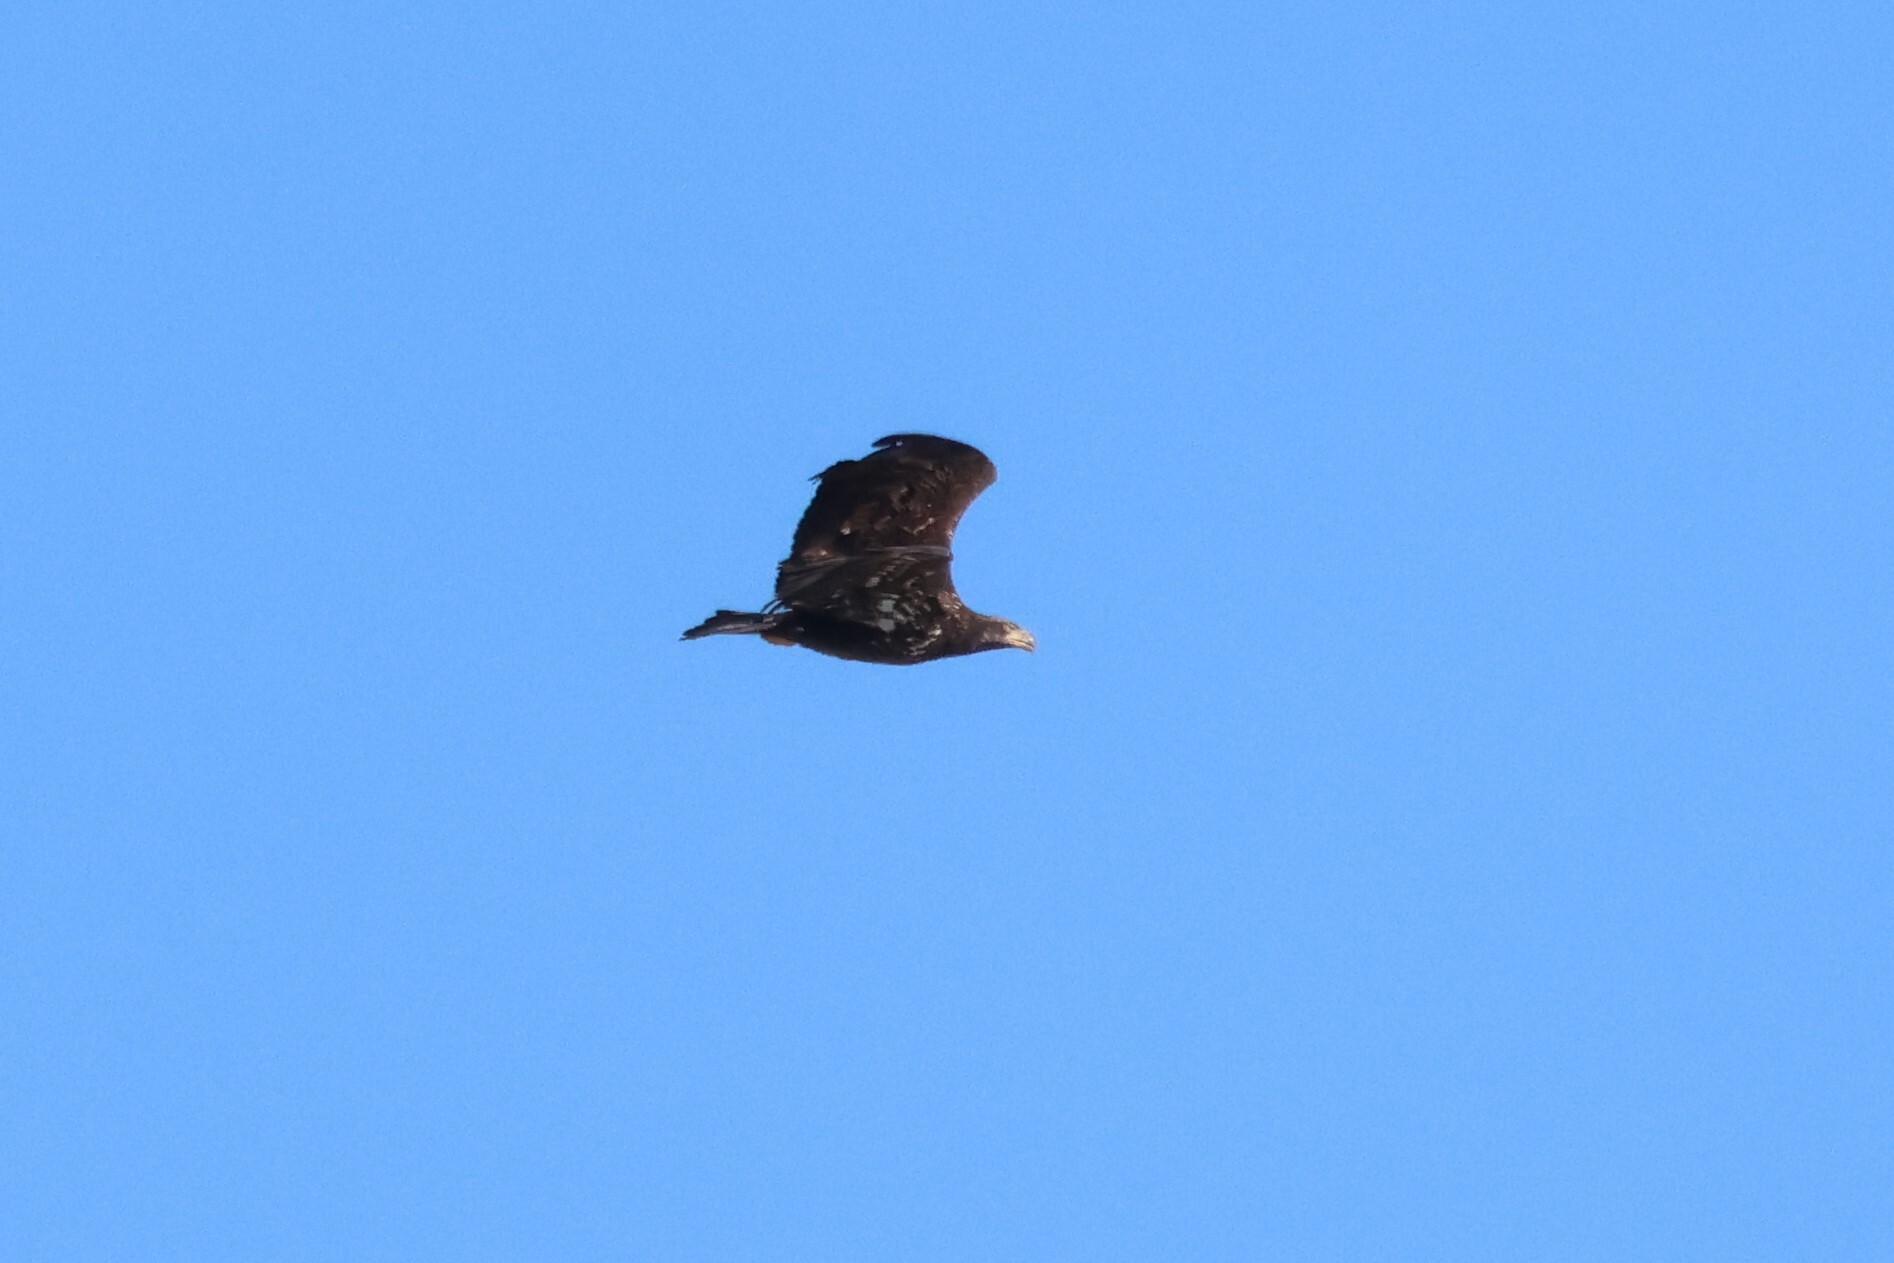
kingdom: Animalia
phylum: Chordata
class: Aves
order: Accipitriformes
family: Accipitridae
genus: Haliaeetus
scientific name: Haliaeetus leucocephalus
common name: Bald eagle
